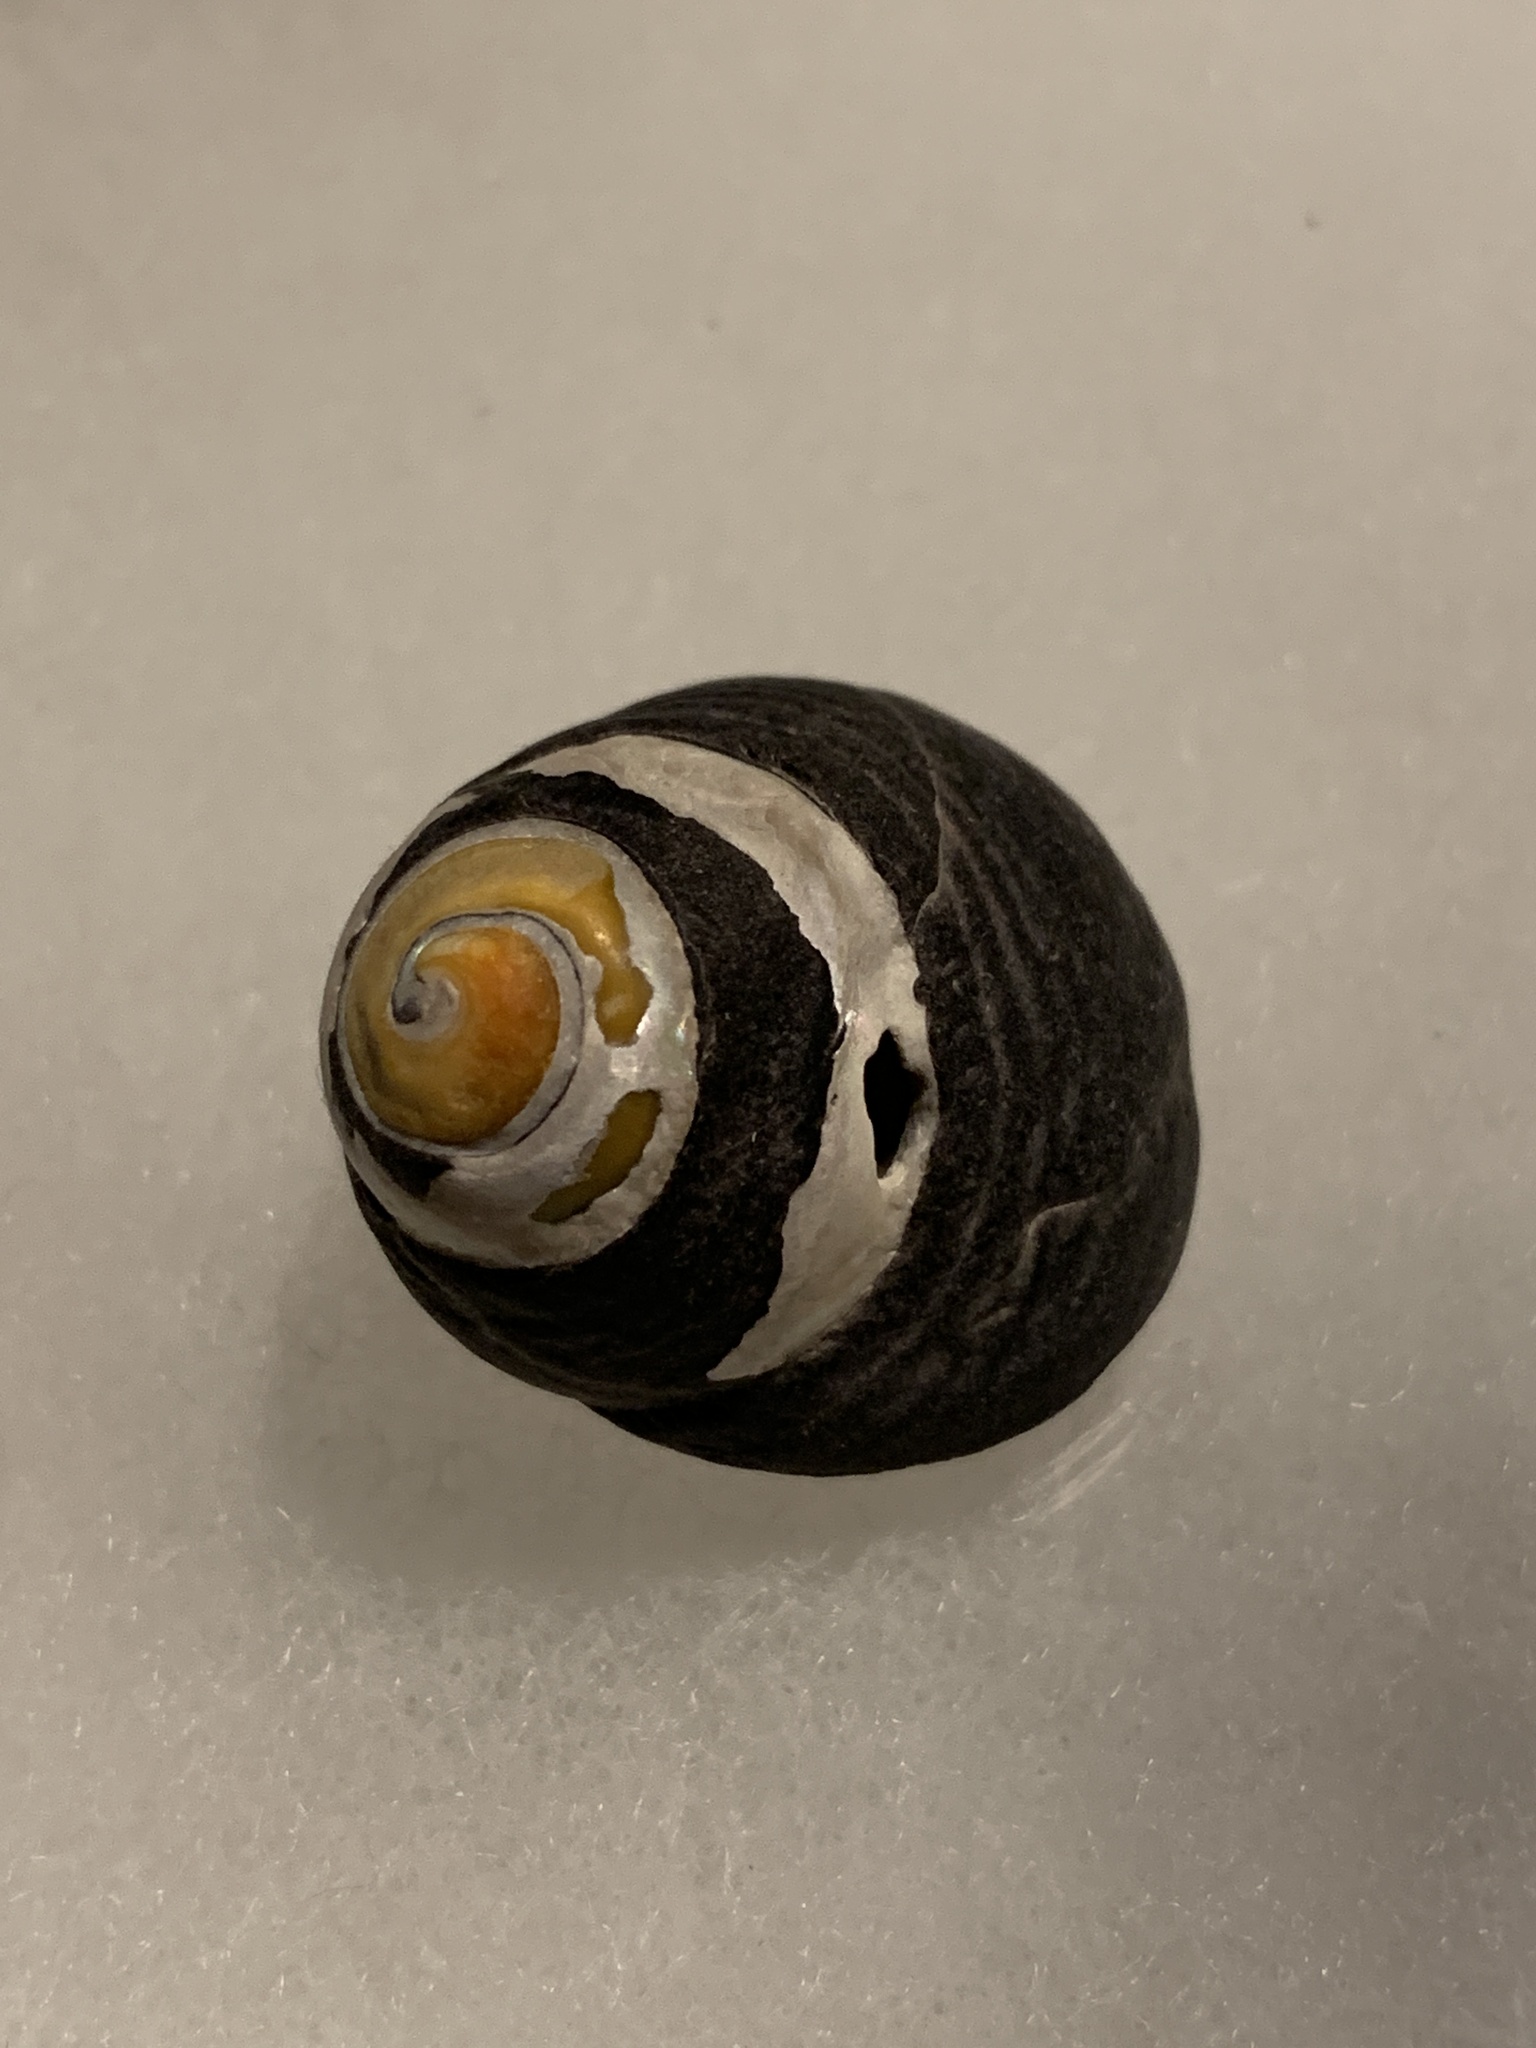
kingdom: Animalia
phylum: Mollusca
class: Gastropoda
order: Trochida
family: Tegulidae
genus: Tegula
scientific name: Tegula funebralis
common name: Black tegula
